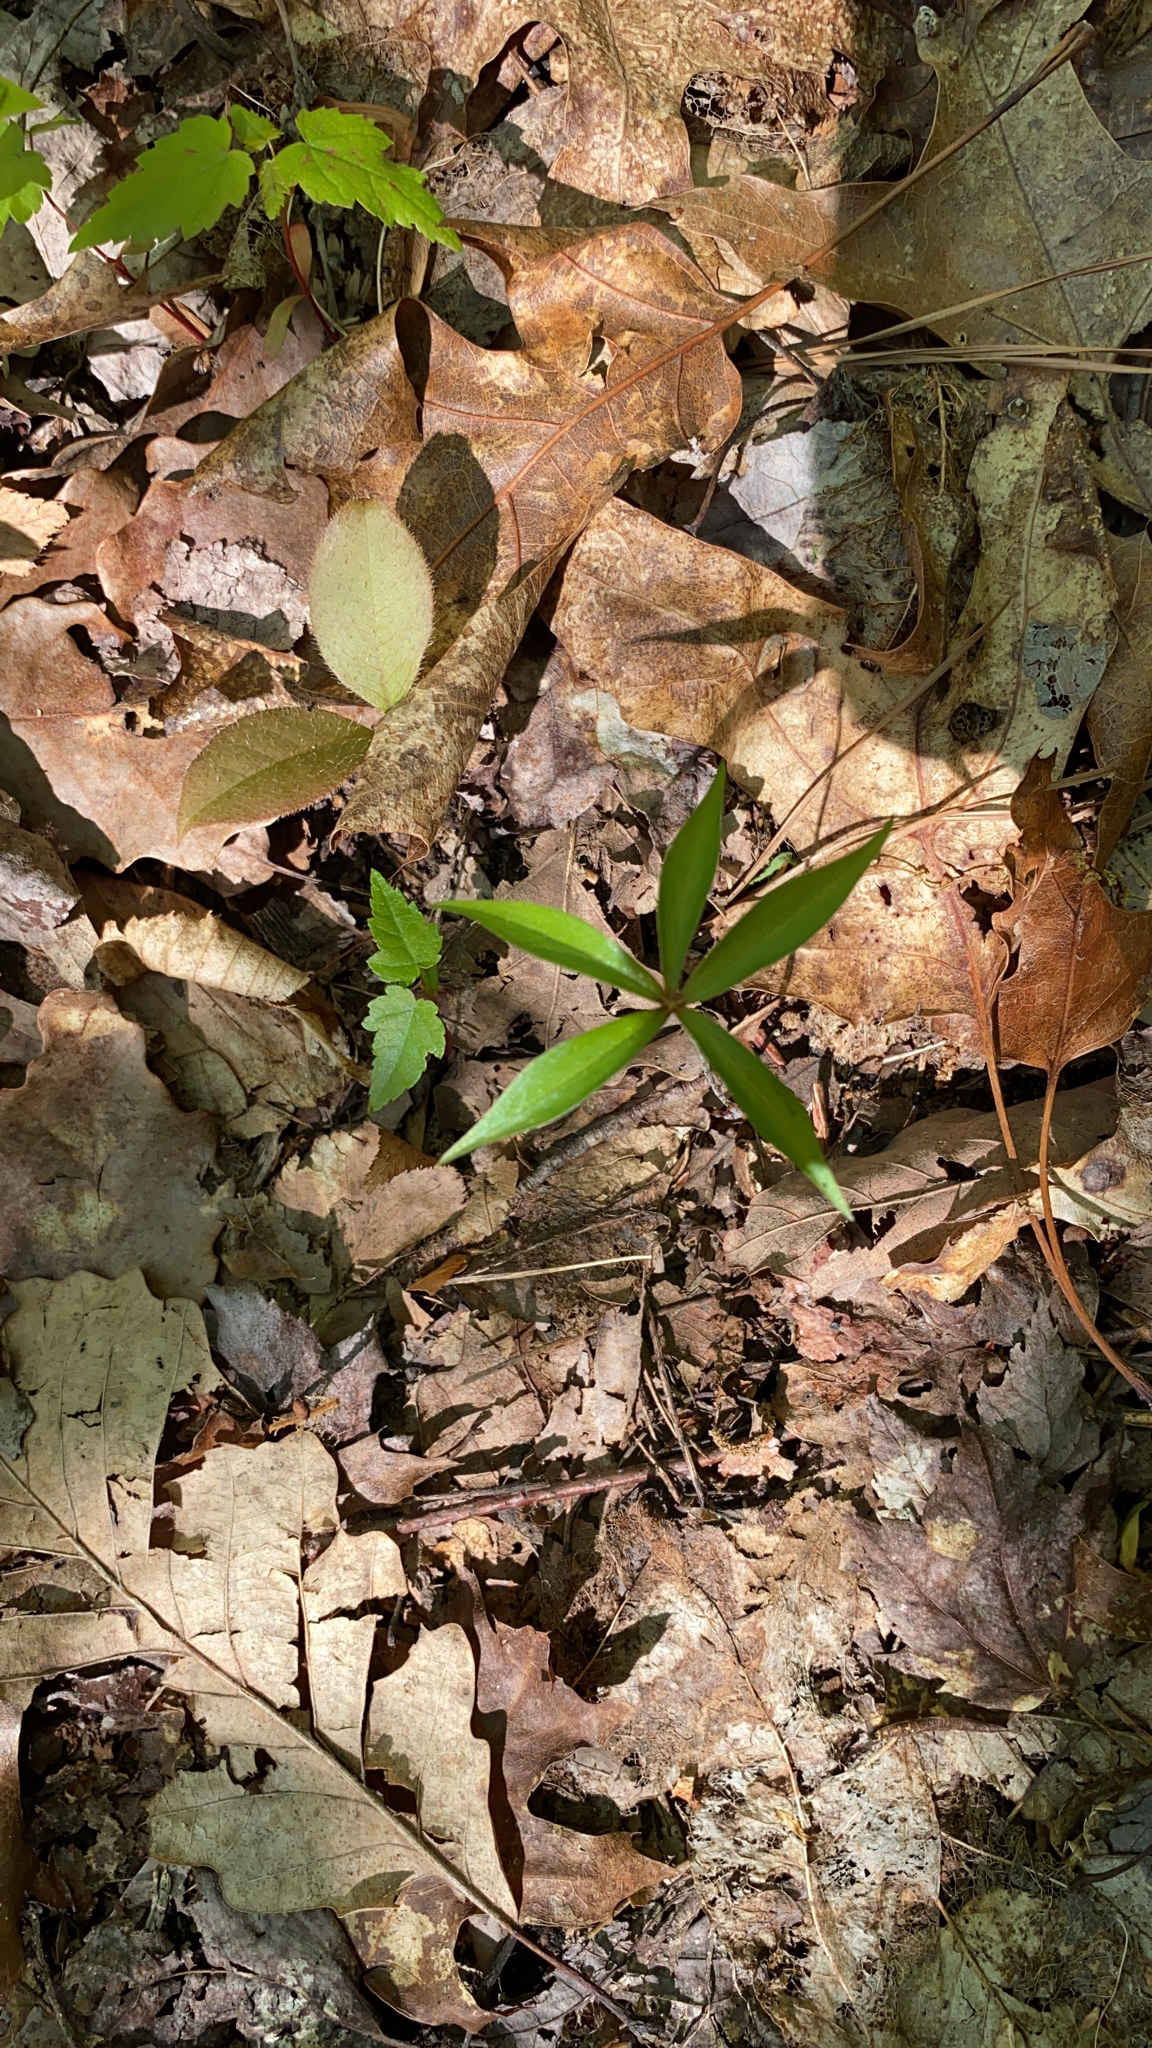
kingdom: Plantae
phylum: Tracheophyta
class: Liliopsida
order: Liliales
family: Liliaceae
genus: Medeola
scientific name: Medeola virginiana
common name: Indian cucumber-root
